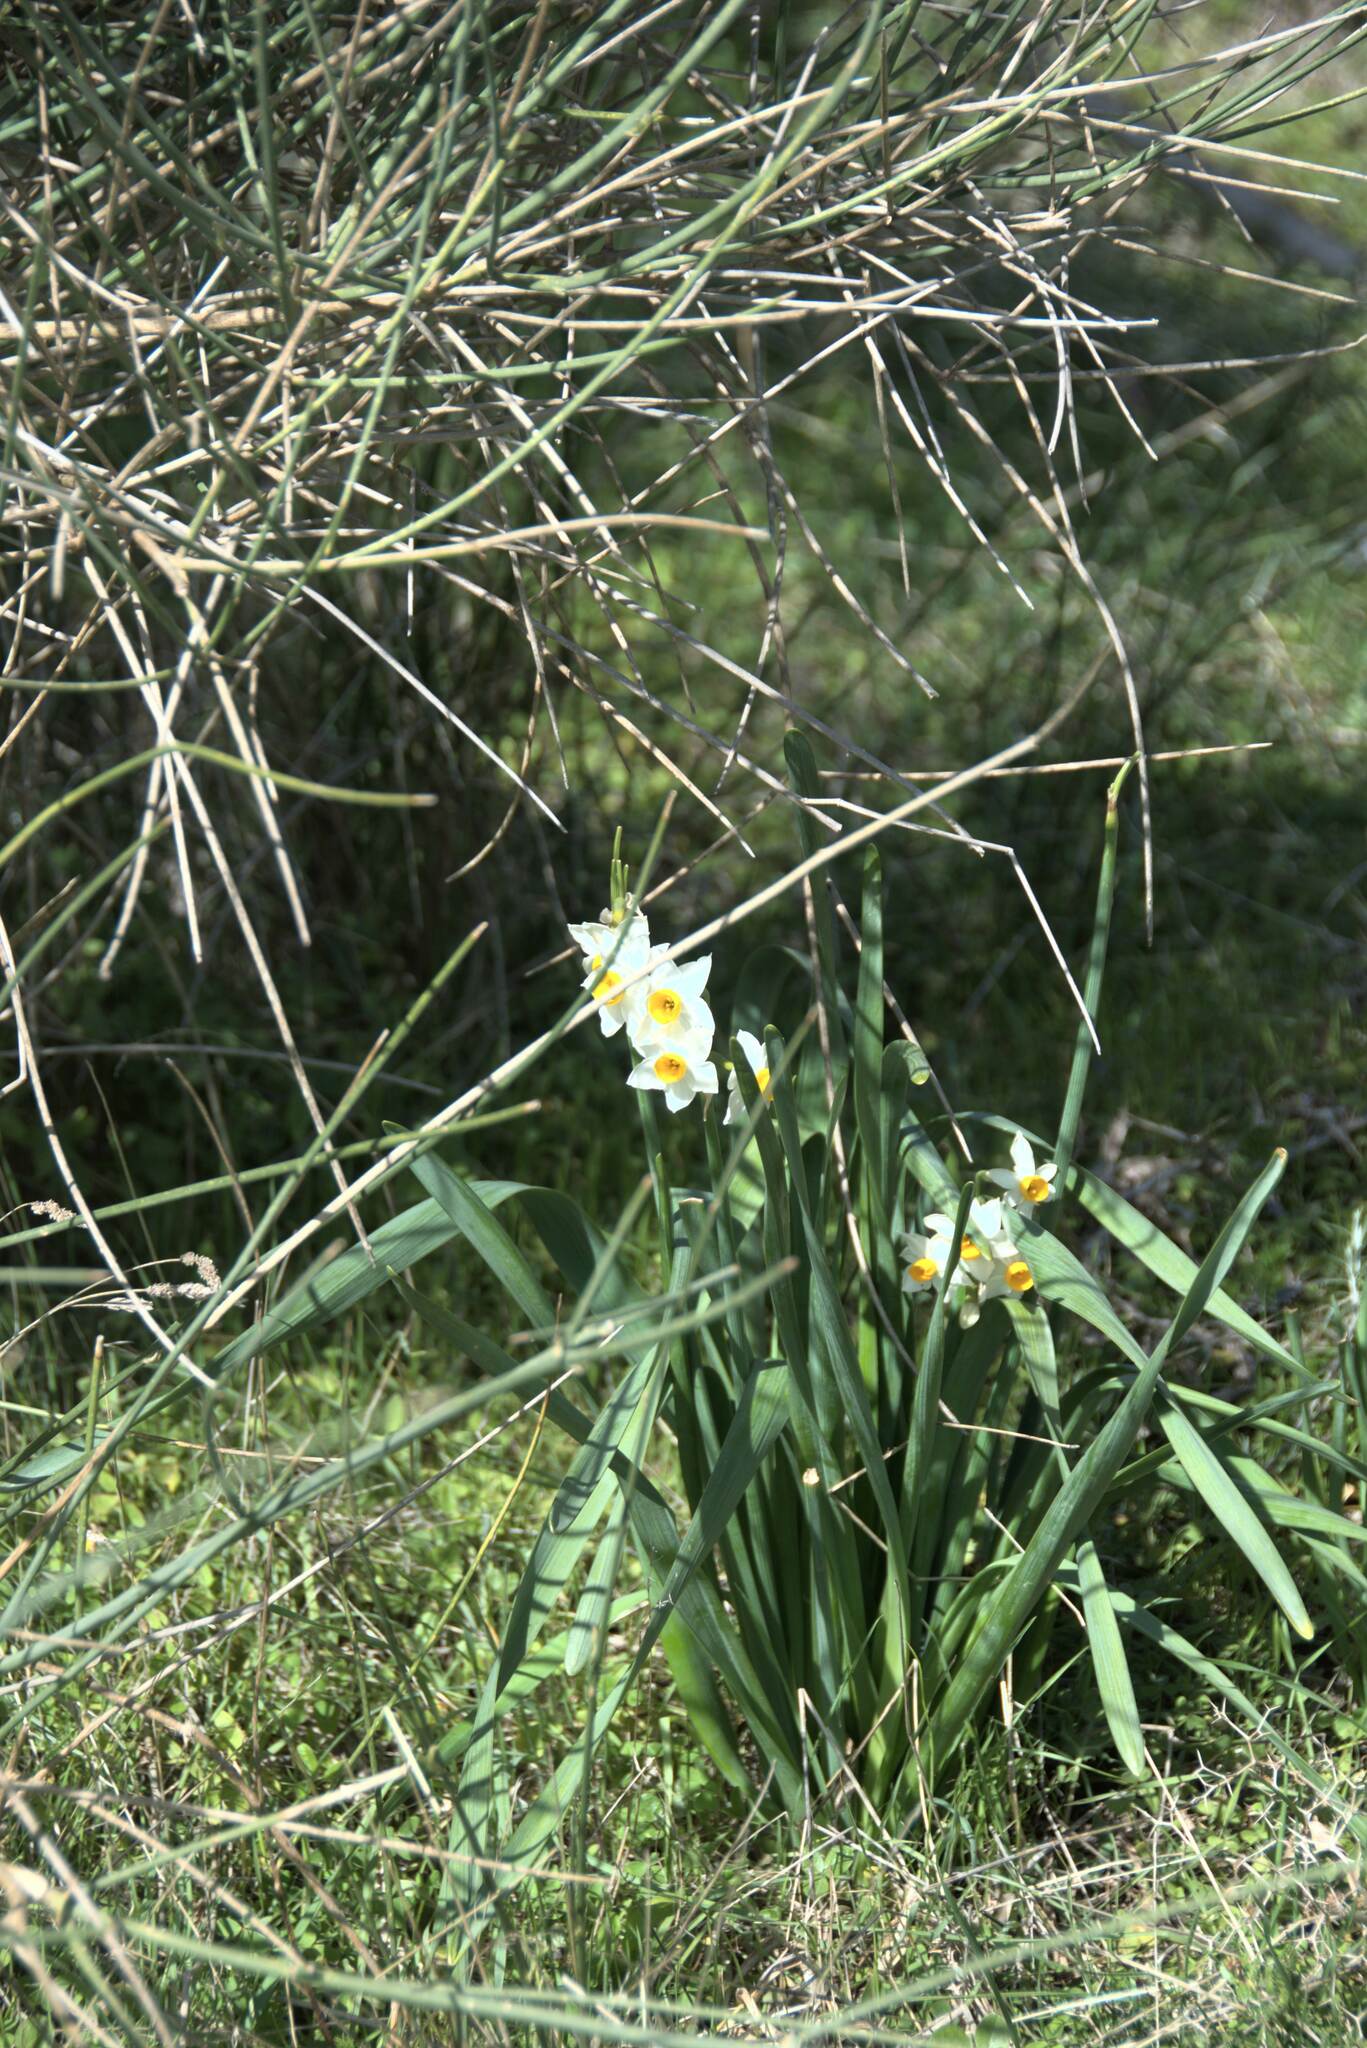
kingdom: Plantae
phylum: Tracheophyta
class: Liliopsida
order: Asparagales
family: Amaryllidaceae
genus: Narcissus
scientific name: Narcissus tazetta
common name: Bunch-flowered daffodil
